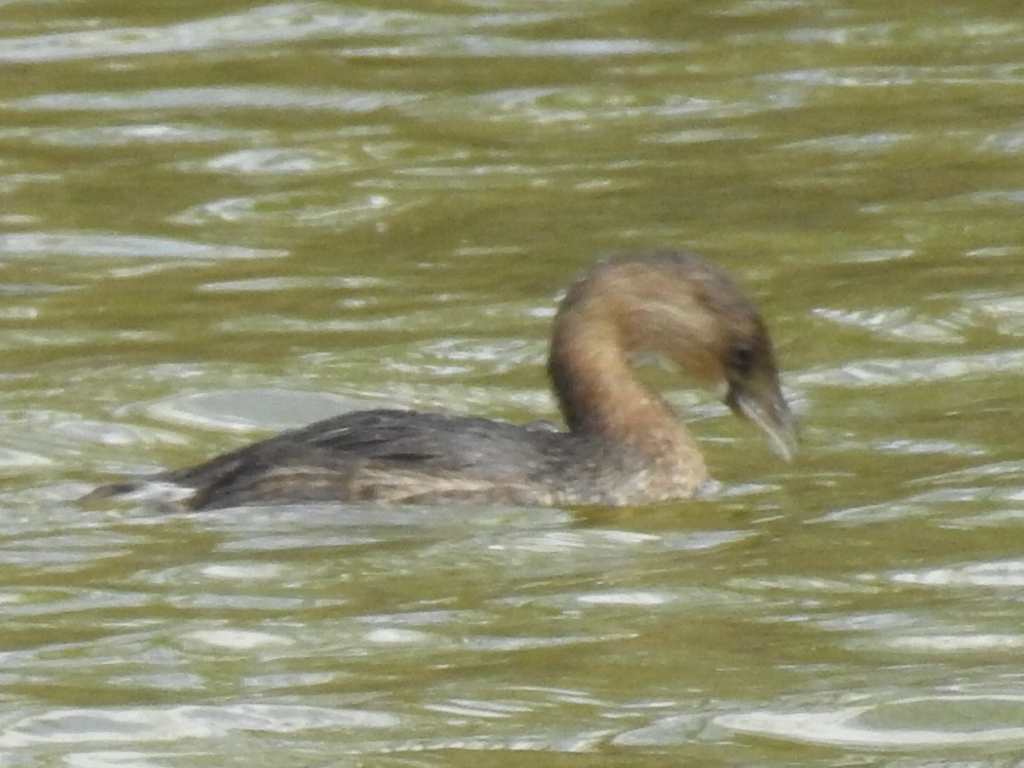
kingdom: Animalia
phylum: Chordata
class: Aves
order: Podicipediformes
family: Podicipedidae
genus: Podilymbus
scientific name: Podilymbus podiceps
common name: Pied-billed grebe
